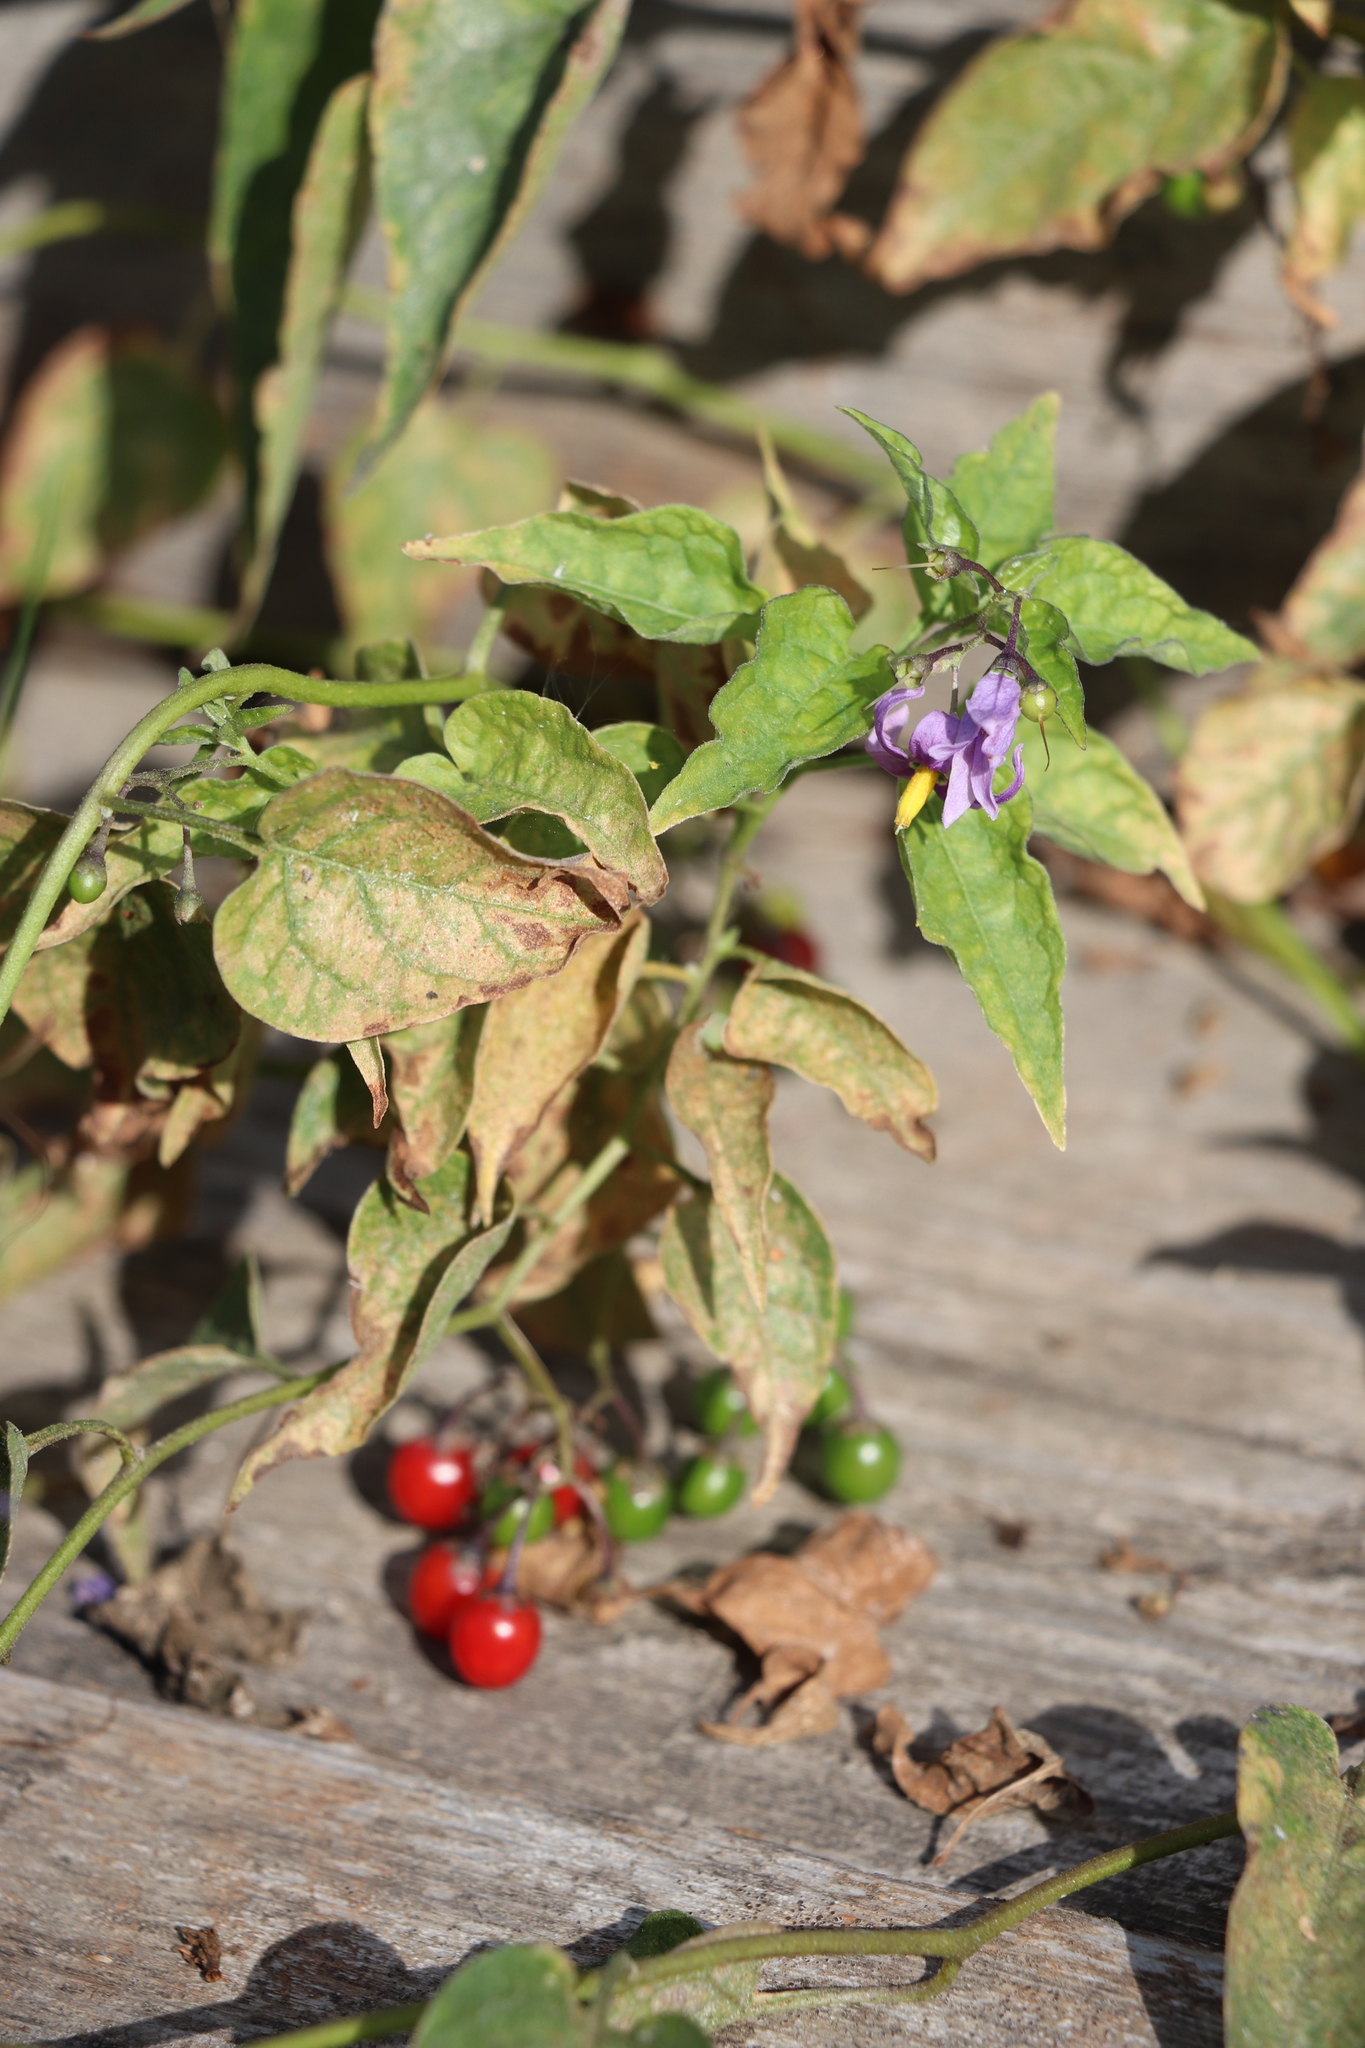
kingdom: Plantae
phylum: Tracheophyta
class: Magnoliopsida
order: Solanales
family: Solanaceae
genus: Solanum
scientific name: Solanum dulcamara
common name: Climbing nightshade
